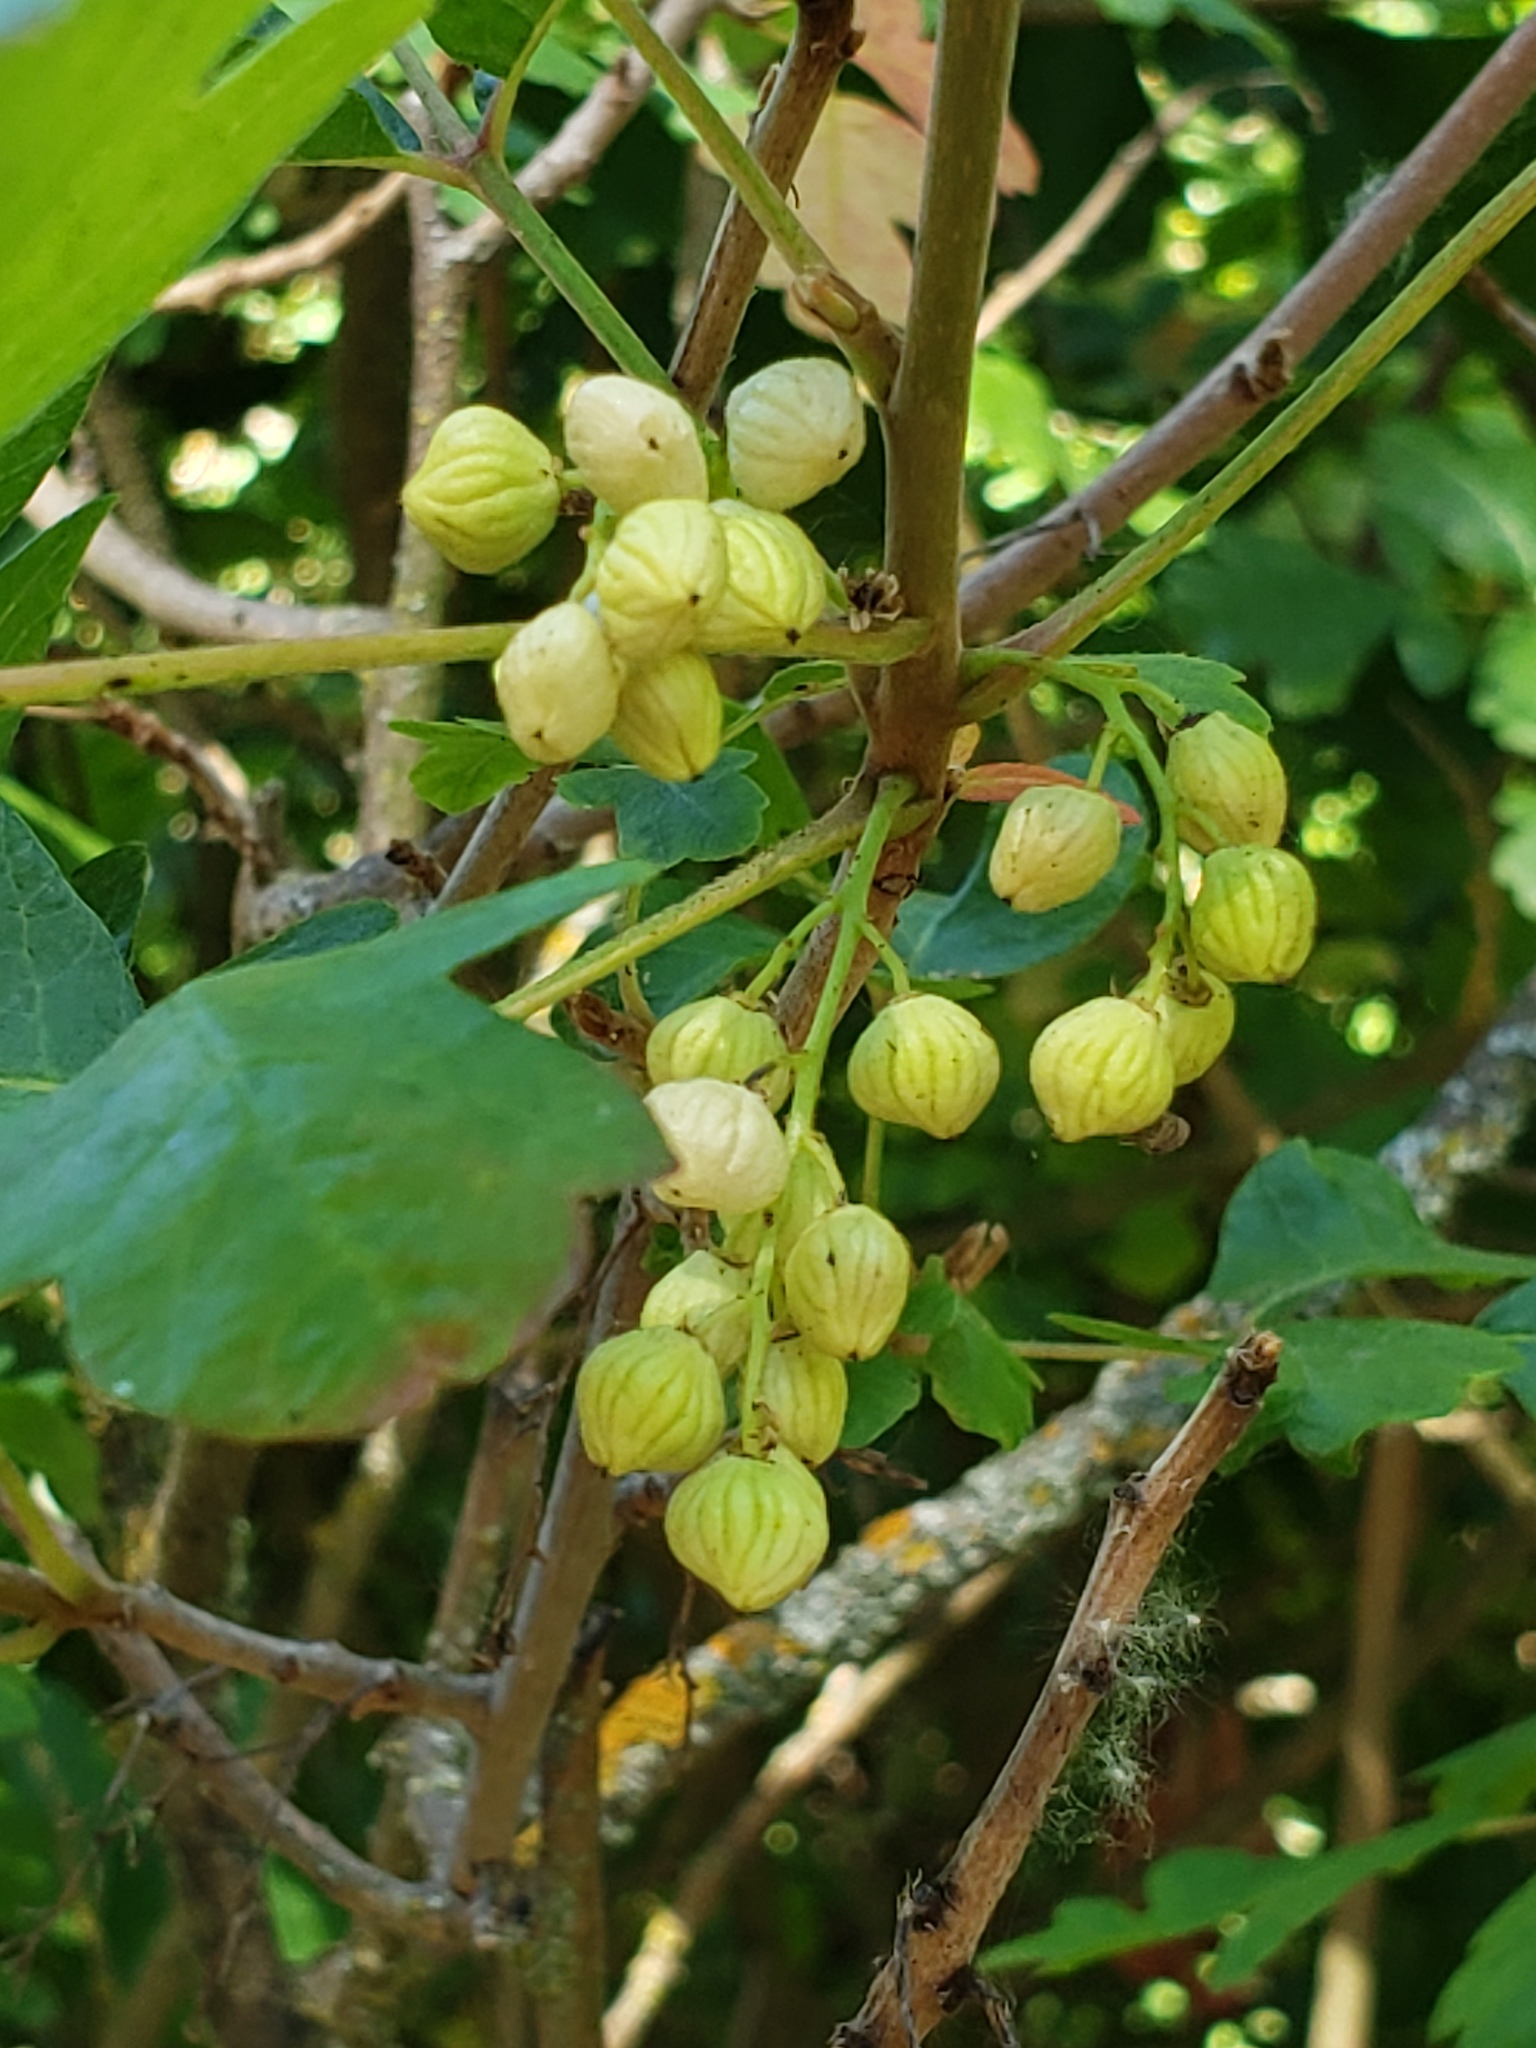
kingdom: Plantae
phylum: Tracheophyta
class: Magnoliopsida
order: Sapindales
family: Anacardiaceae
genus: Toxicodendron
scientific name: Toxicodendron diversilobum
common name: Pacific poison-oak
